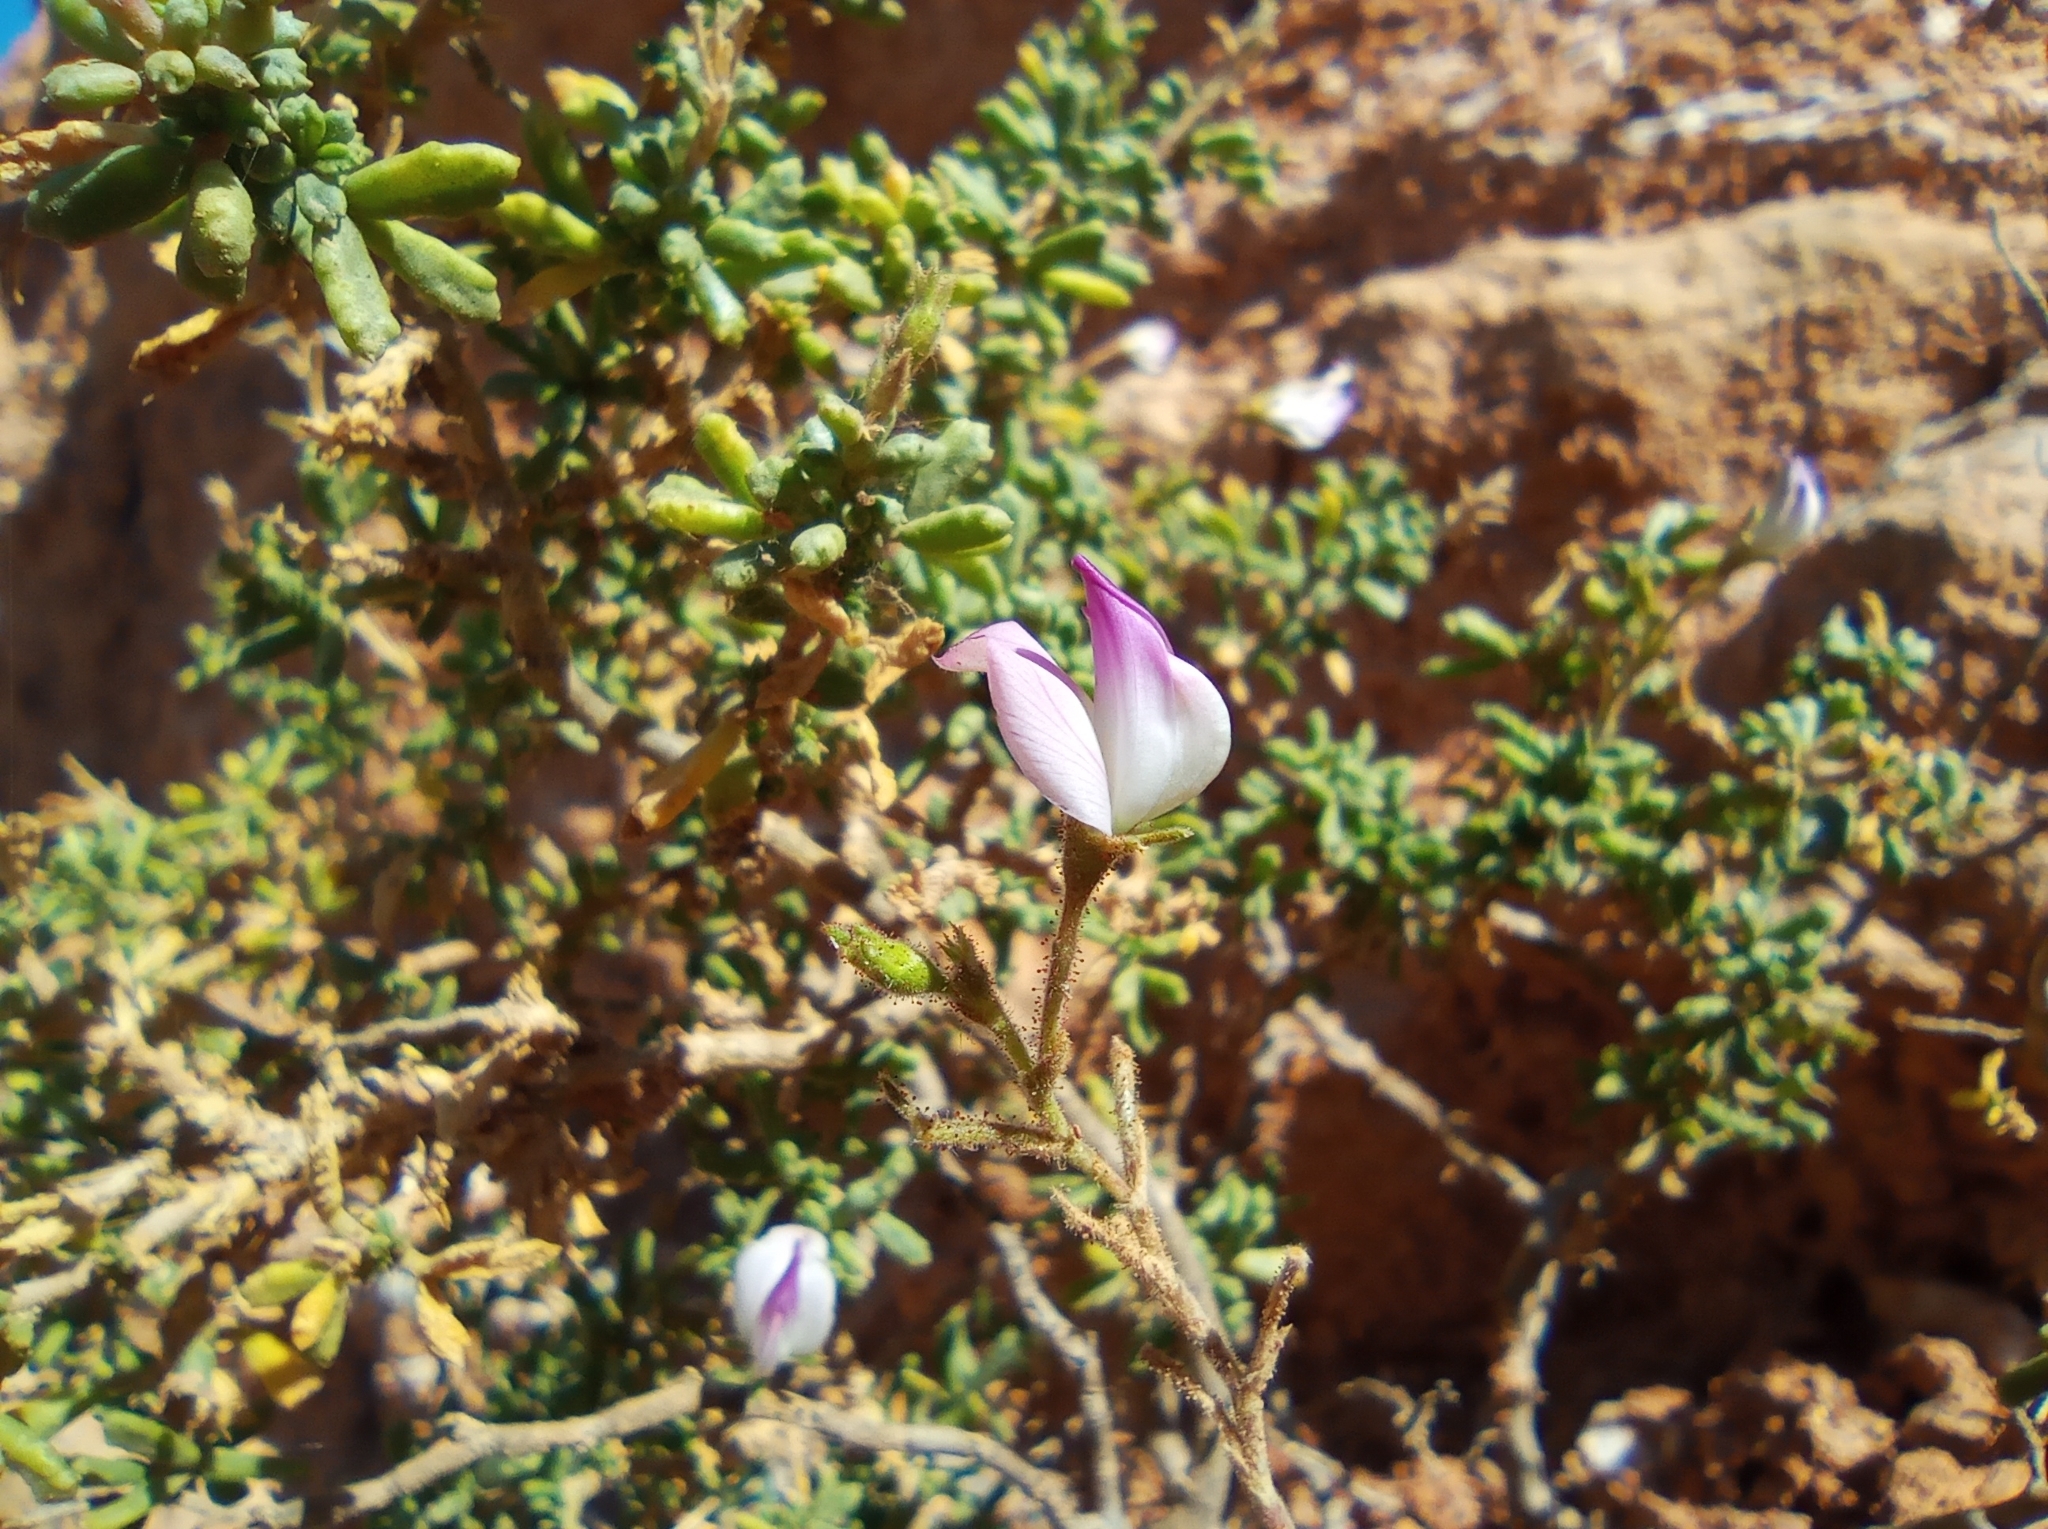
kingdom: Plantae
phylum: Tracheophyta
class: Magnoliopsida
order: Fabales
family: Fabaceae
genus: Ononis
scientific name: Ononis tridentata
